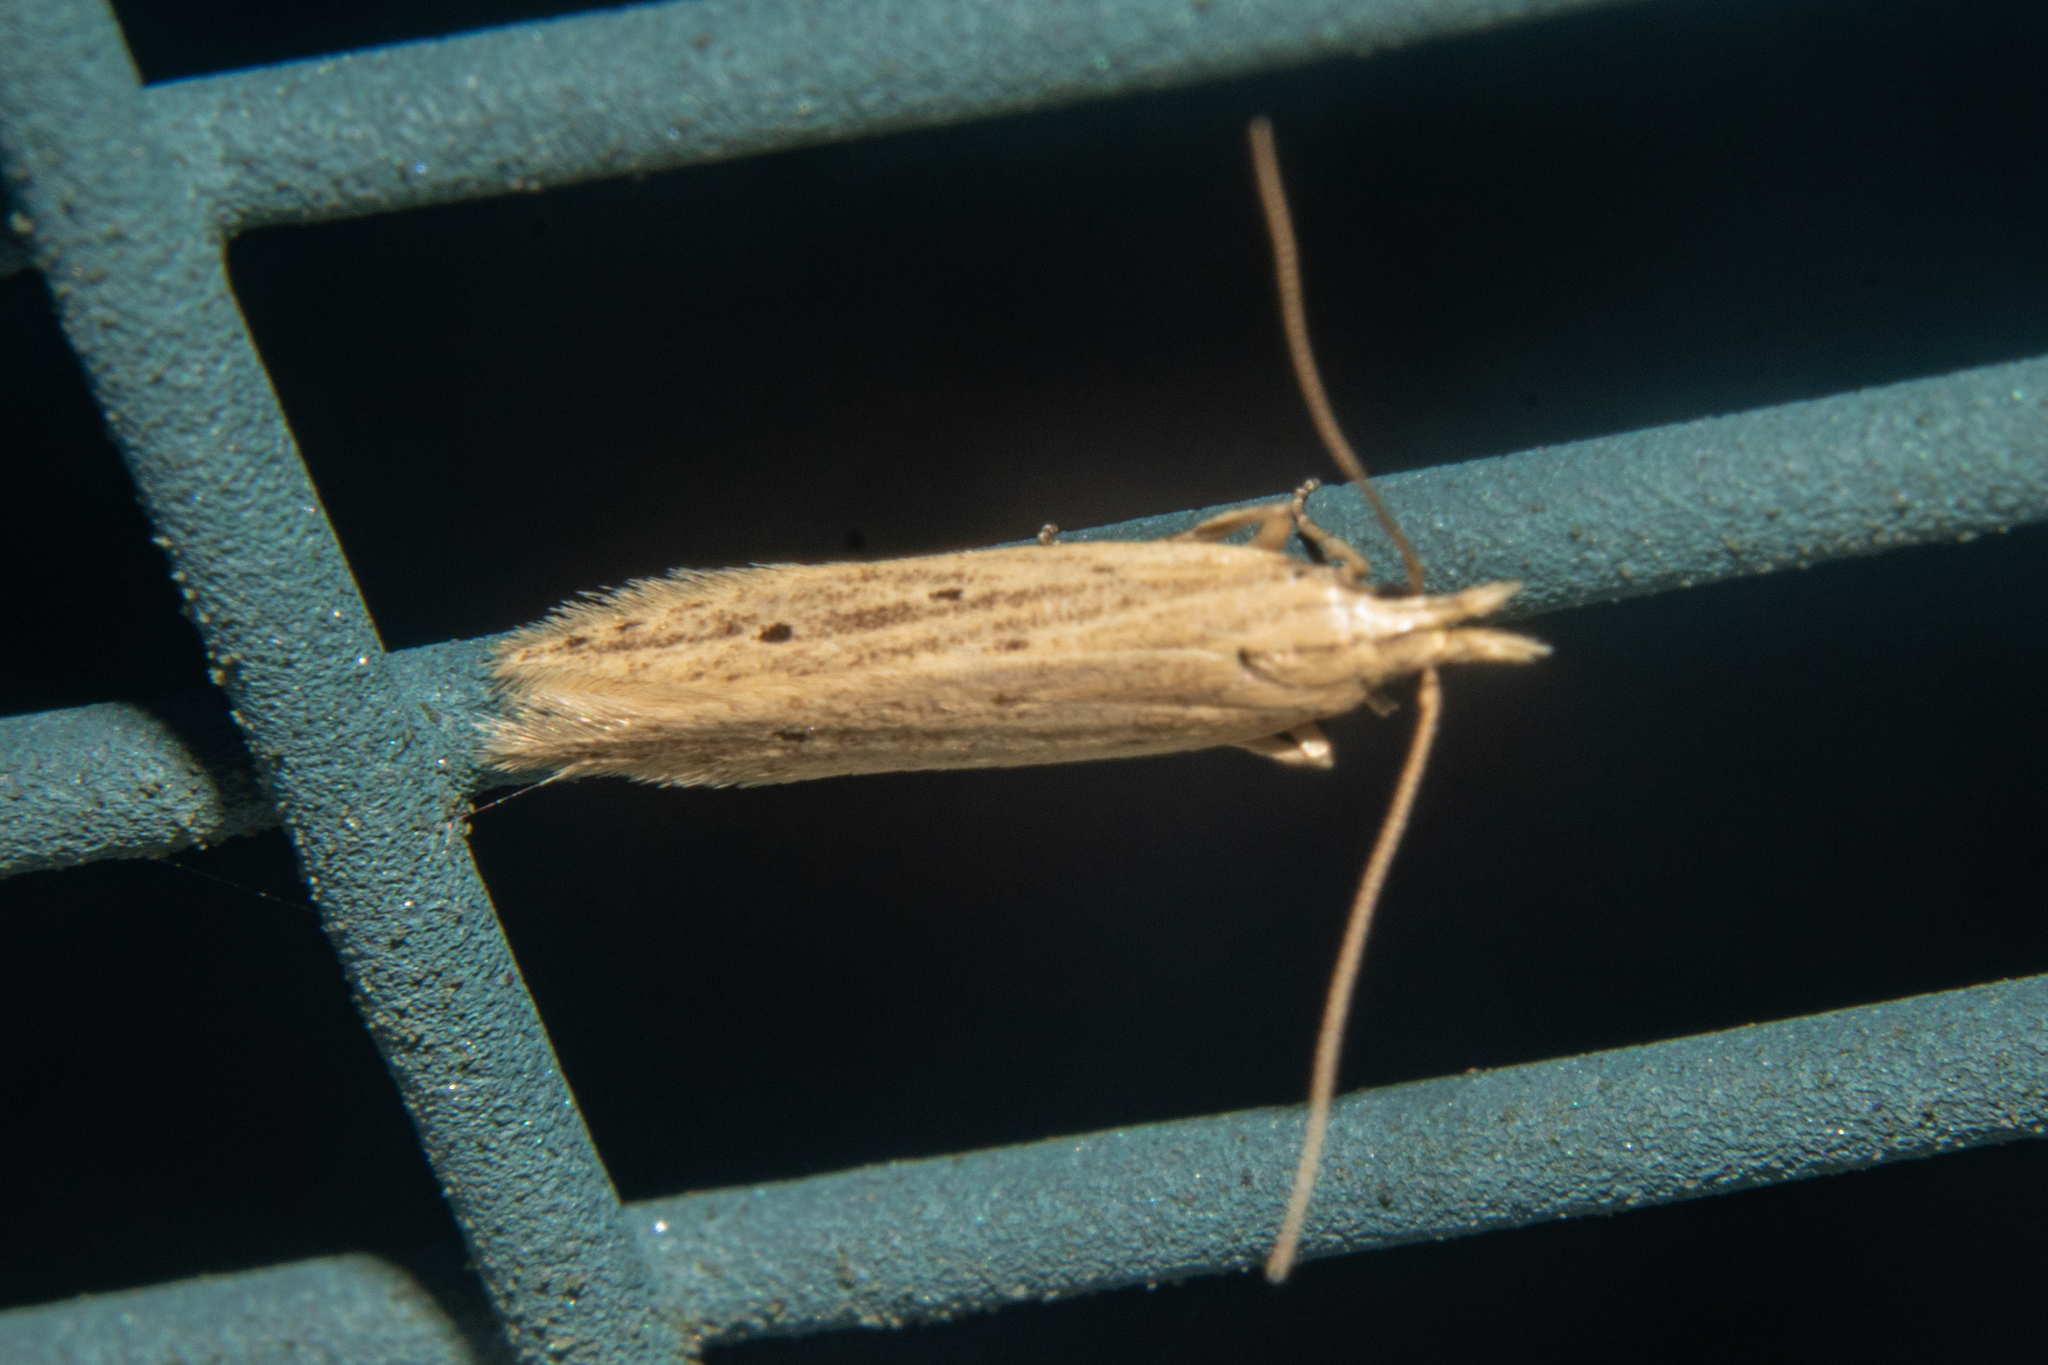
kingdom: Animalia
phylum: Arthropoda
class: Insecta
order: Lepidoptera
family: Gelechiidae
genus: Epiphthora
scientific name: Epiphthora calamogonus
